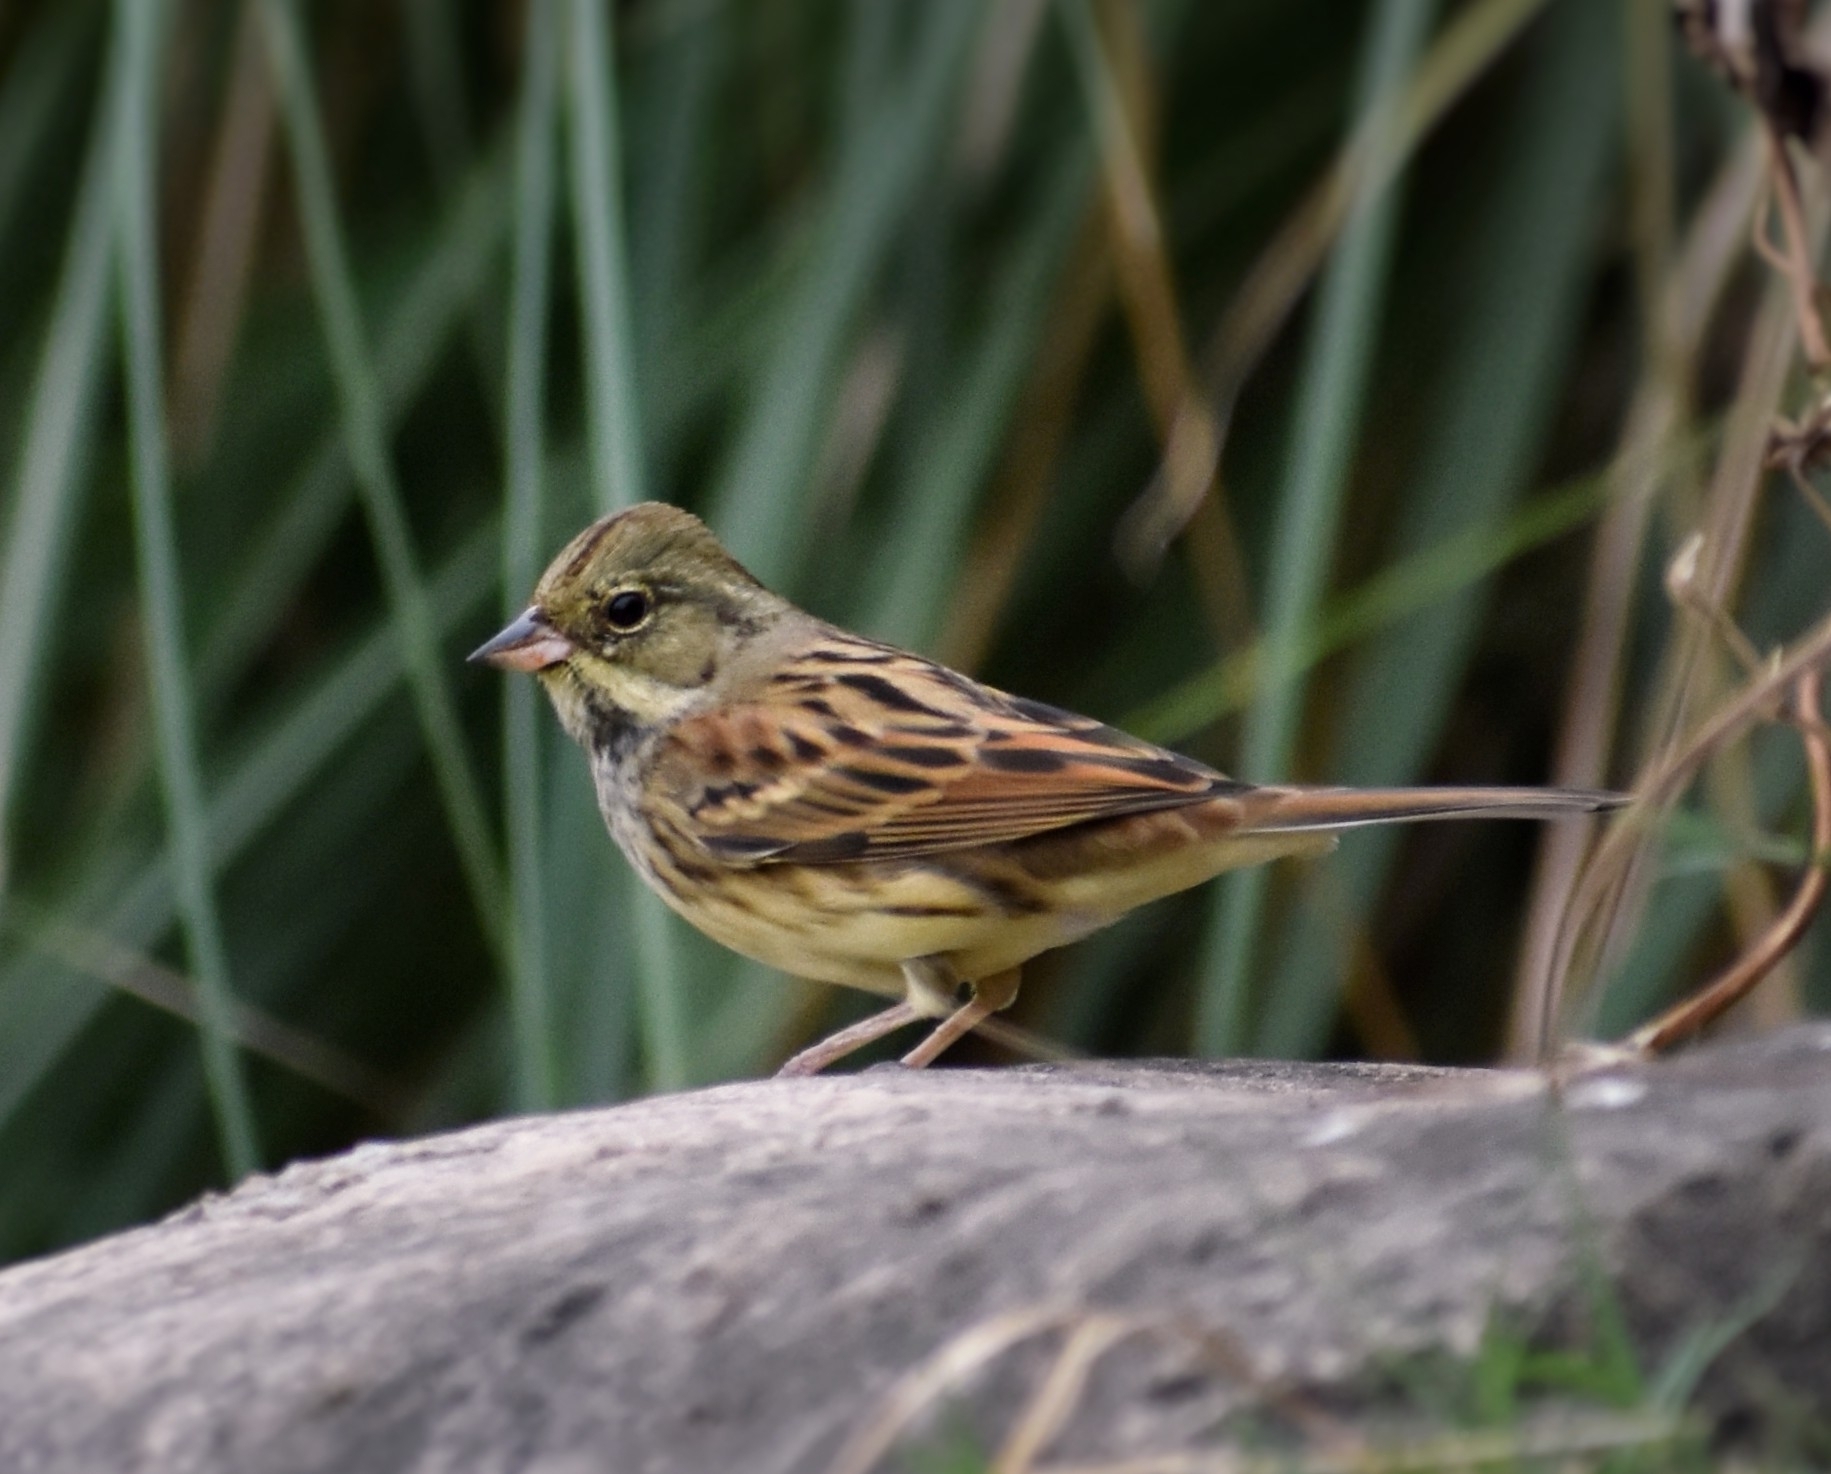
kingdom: Animalia
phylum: Chordata
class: Aves
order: Passeriformes
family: Emberizidae
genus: Emberiza
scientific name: Emberiza spodocephala
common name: Black-faced bunting
